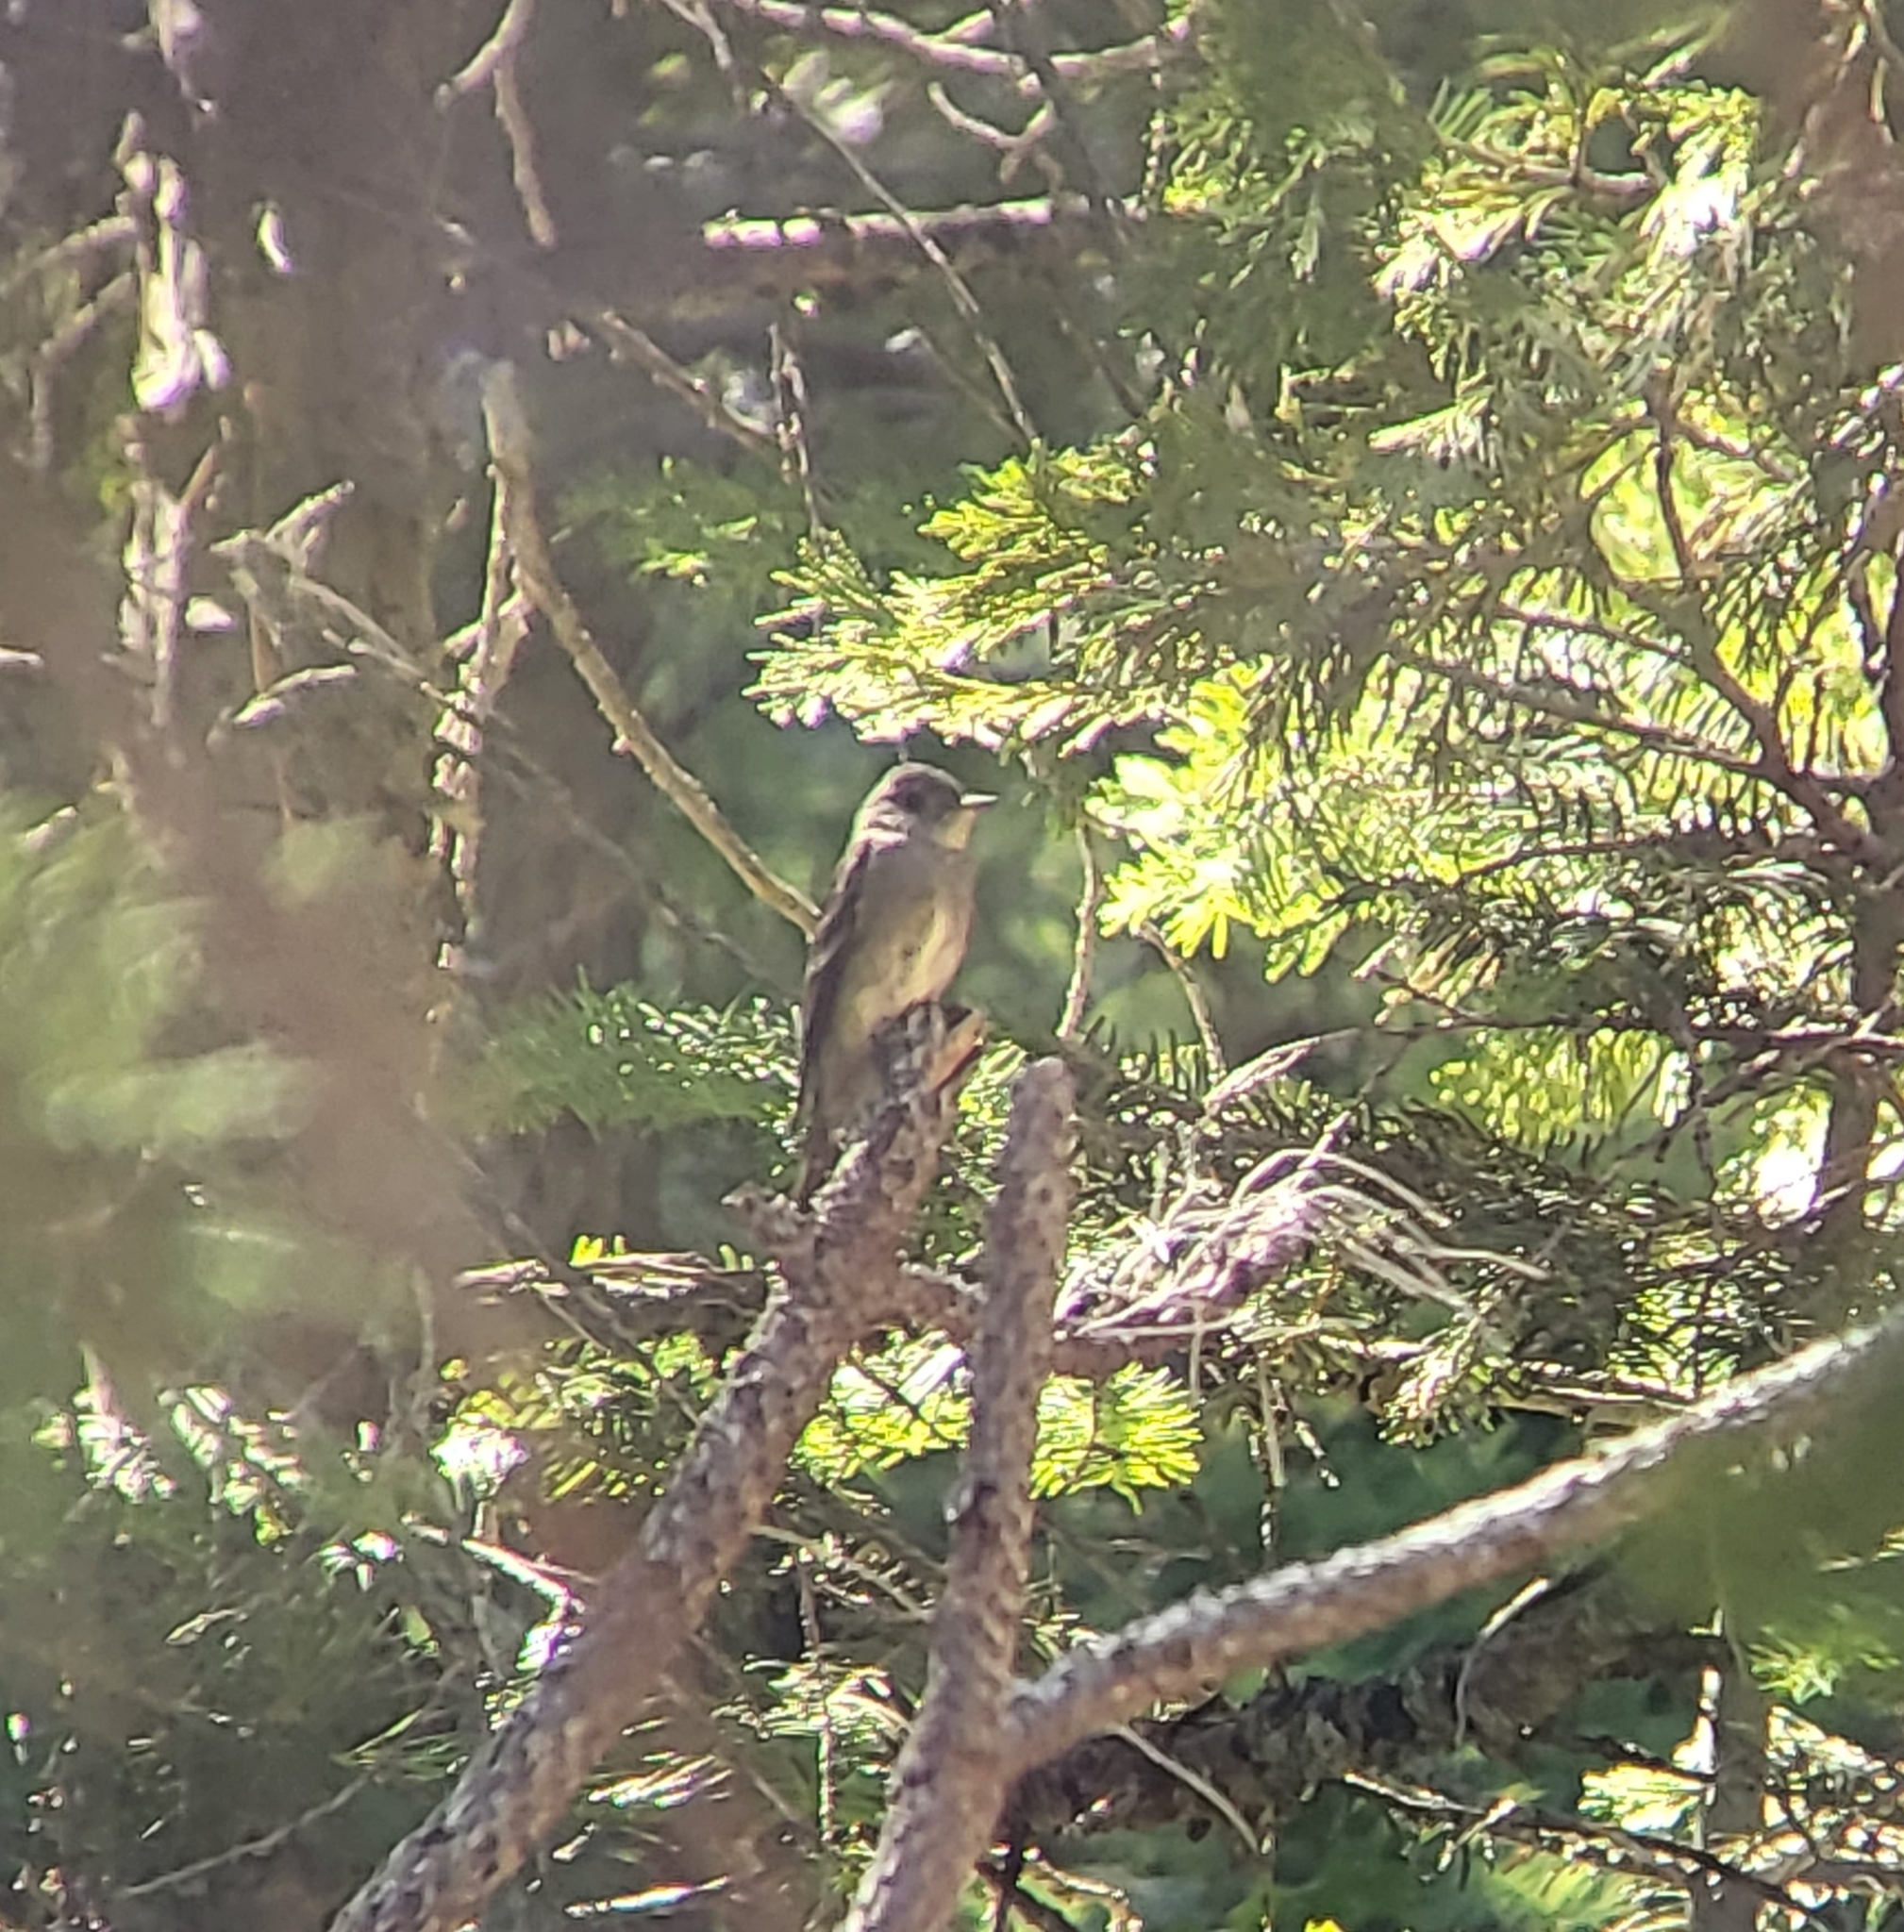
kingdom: Animalia
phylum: Chordata
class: Aves
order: Passeriformes
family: Tyrannidae
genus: Contopus
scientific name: Contopus sordidulus
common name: Western wood-pewee
